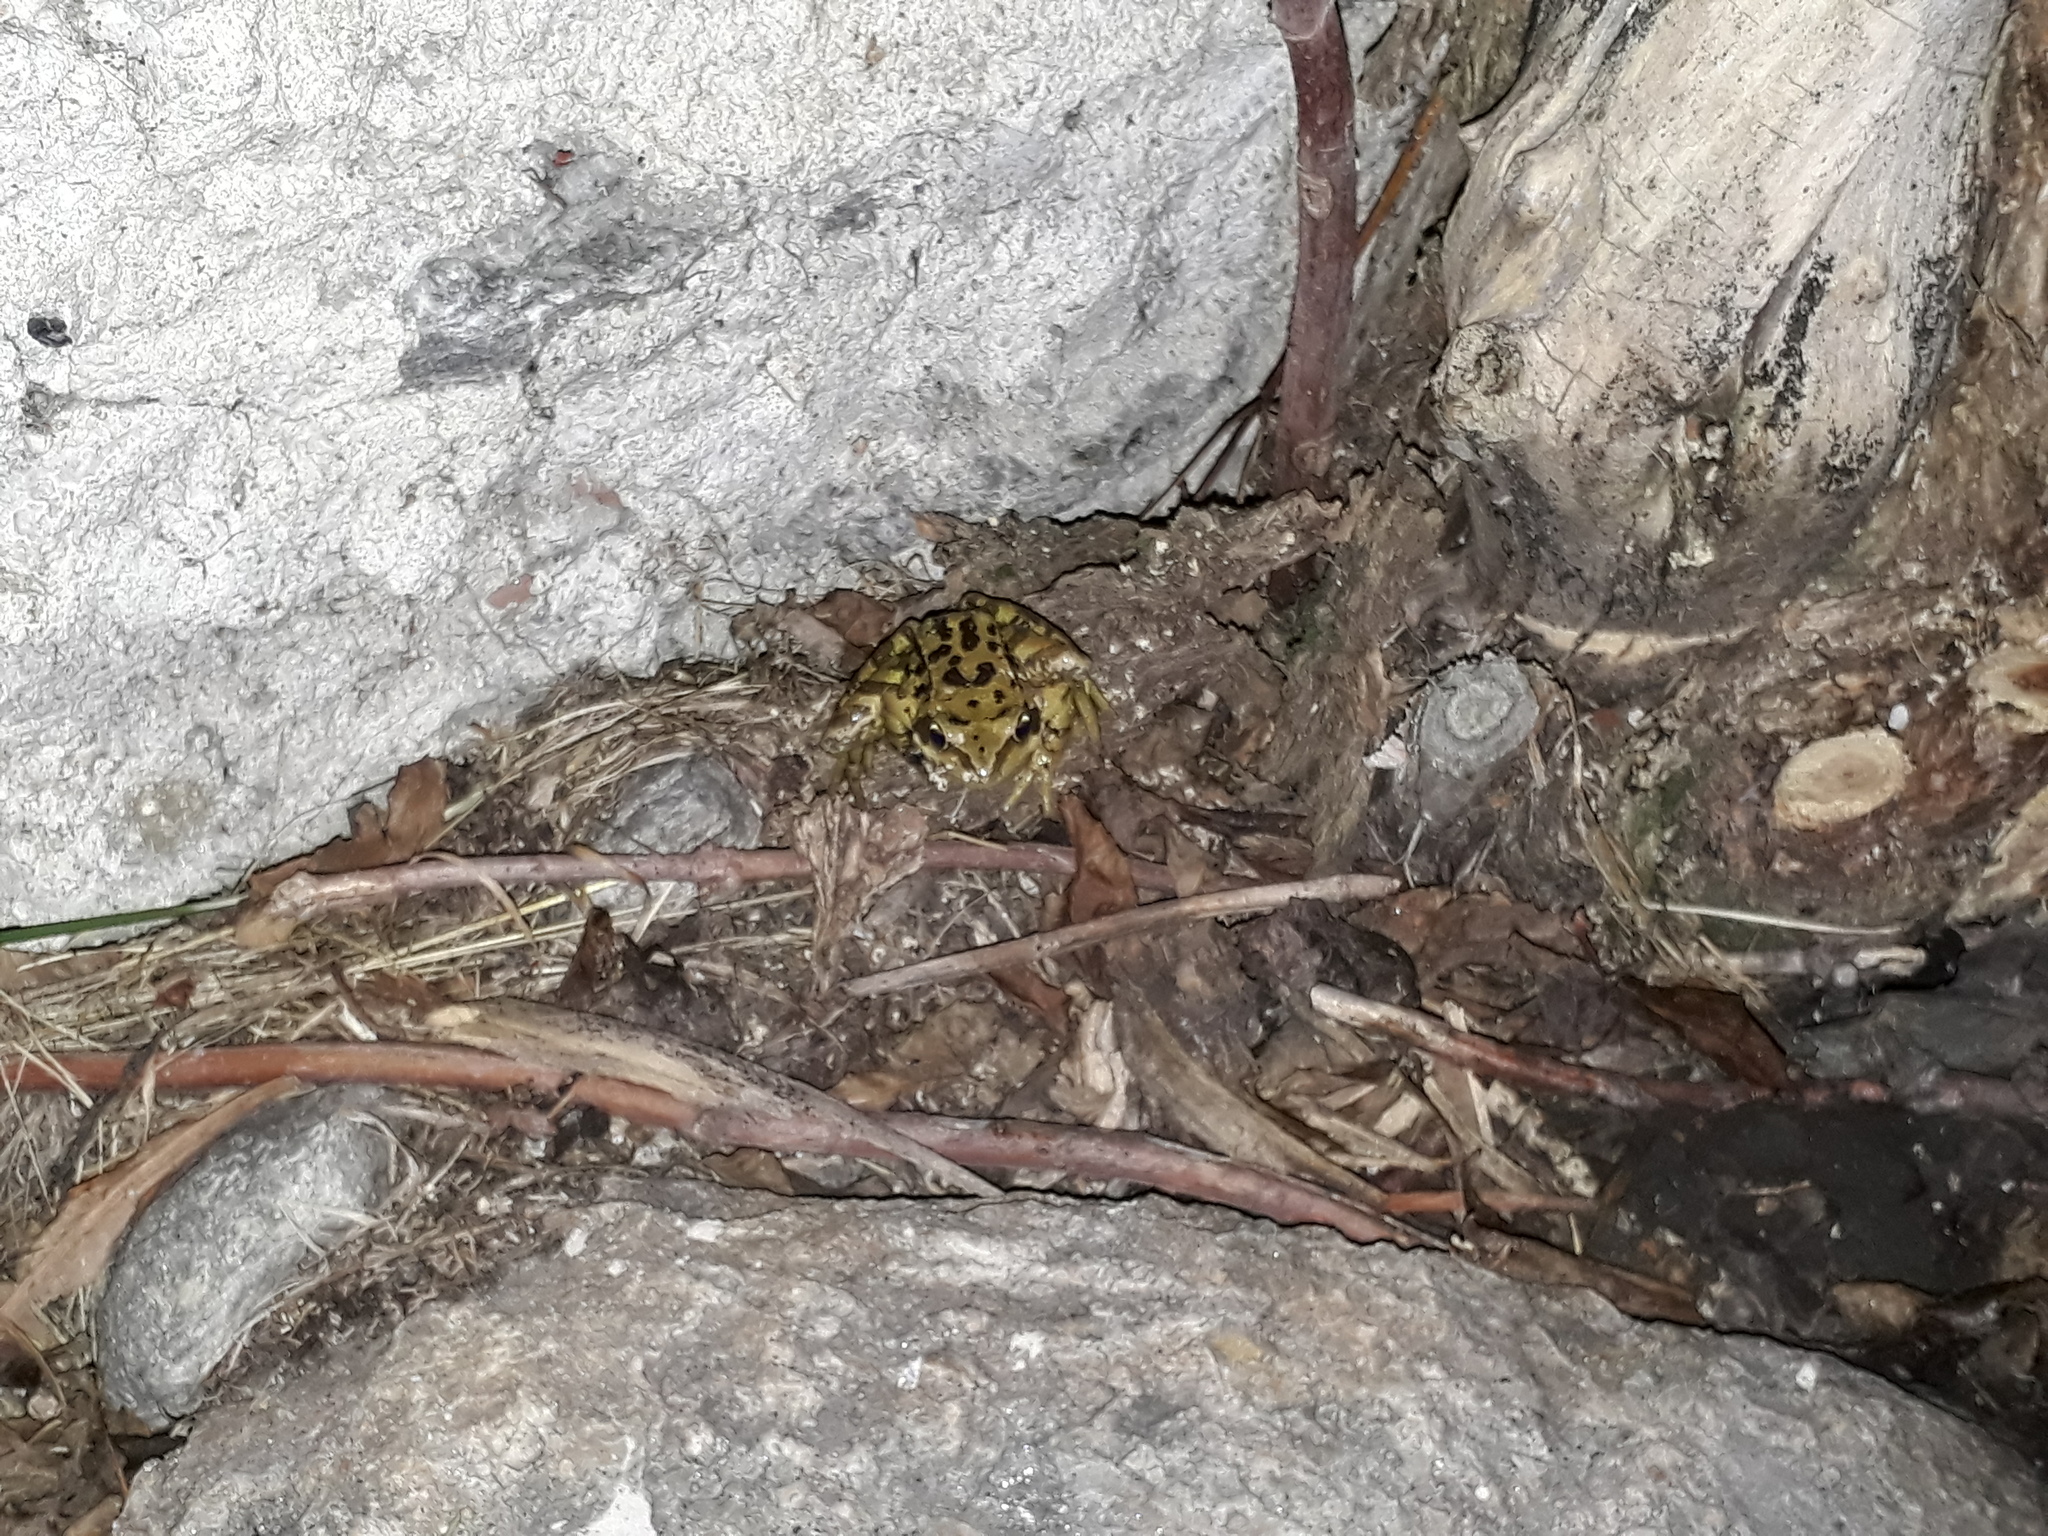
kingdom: Animalia
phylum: Chordata
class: Amphibia
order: Anura
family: Ranidae
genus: Rana
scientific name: Rana temporaria
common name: Common frog
